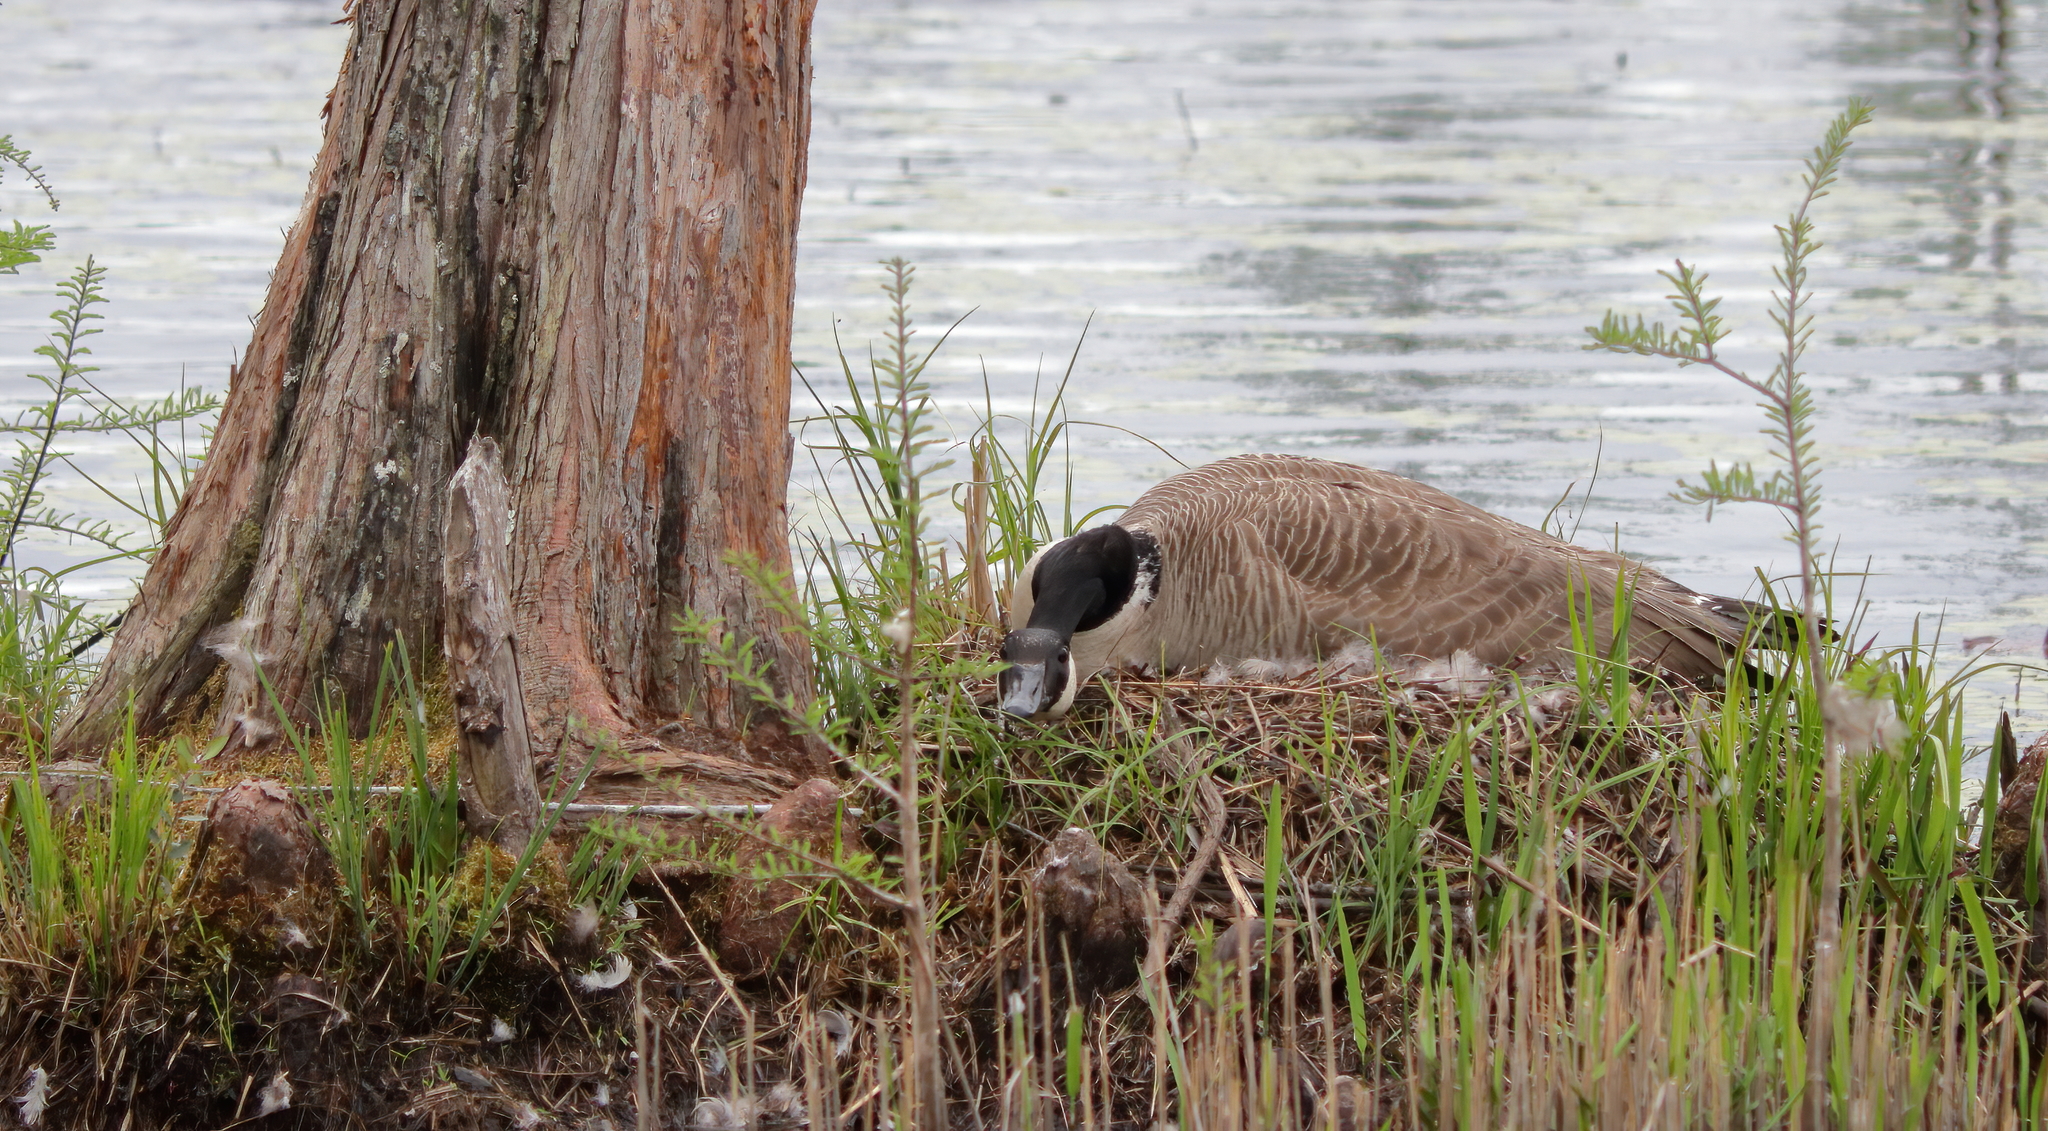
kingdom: Animalia
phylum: Chordata
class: Aves
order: Anseriformes
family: Anatidae
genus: Branta
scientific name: Branta canadensis
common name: Canada goose
